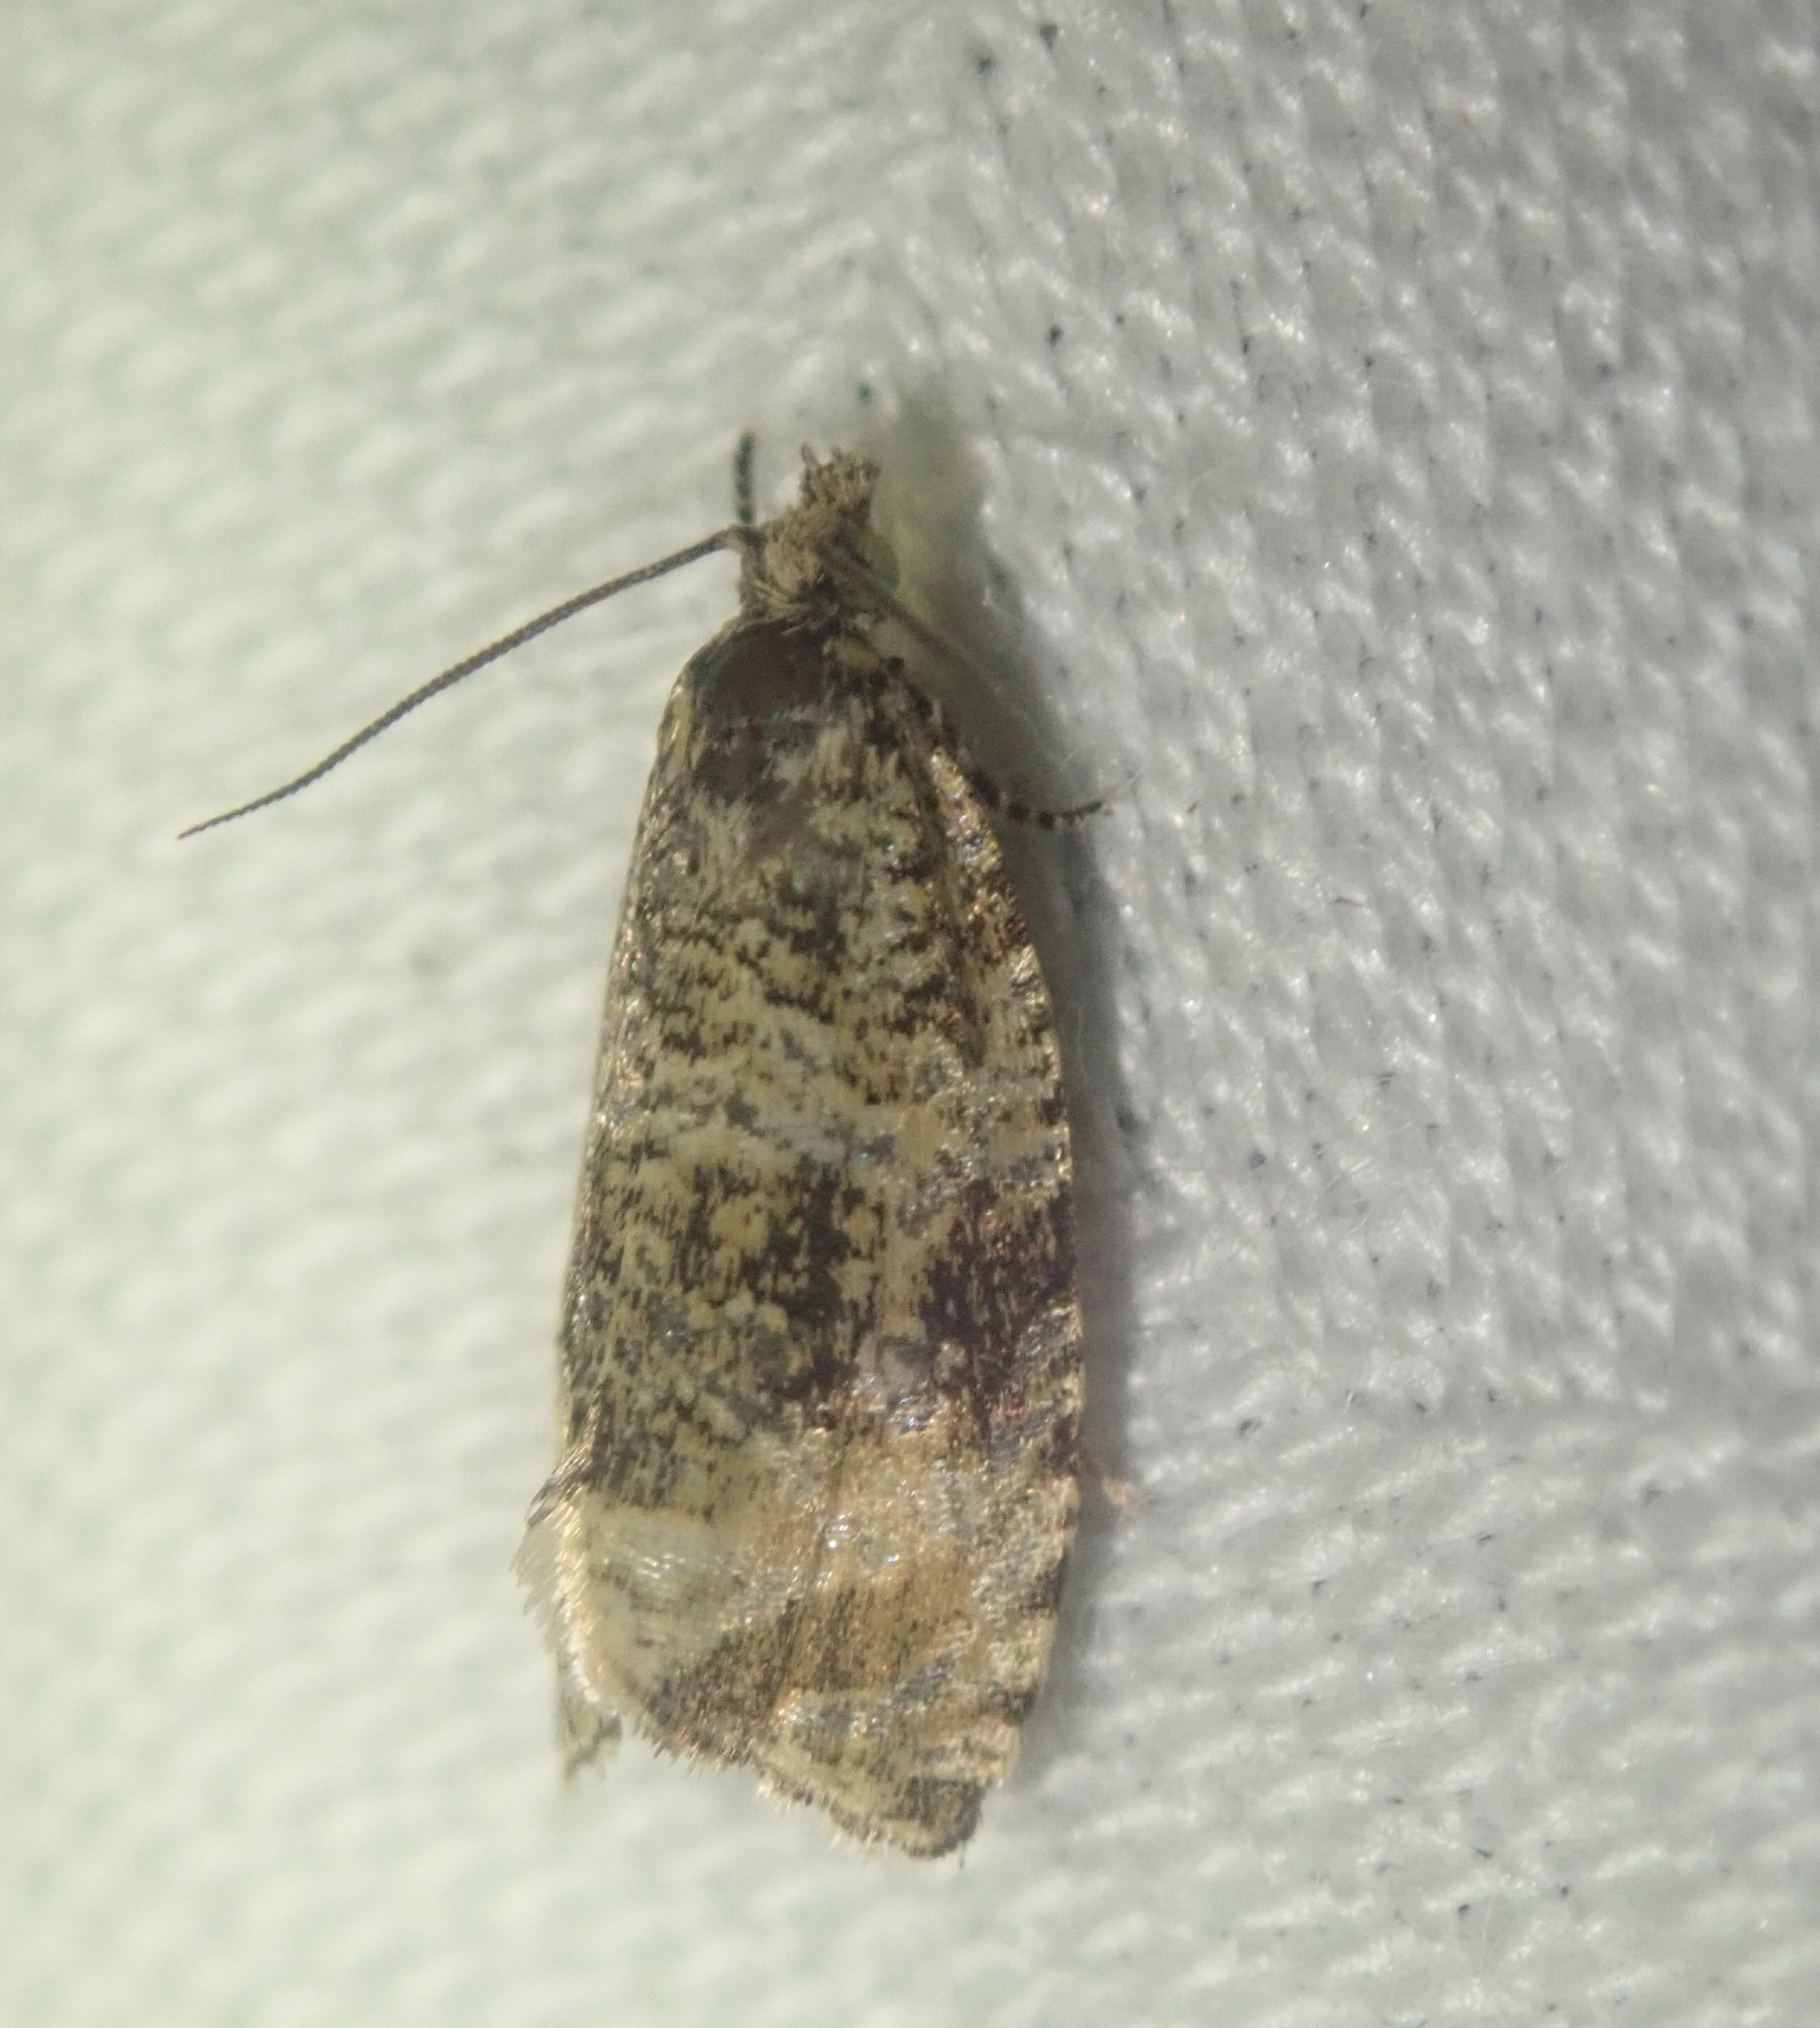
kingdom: Animalia
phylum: Arthropoda
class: Insecta
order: Lepidoptera
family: Tortricidae
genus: Syricoris
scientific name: Syricoris lacunana
